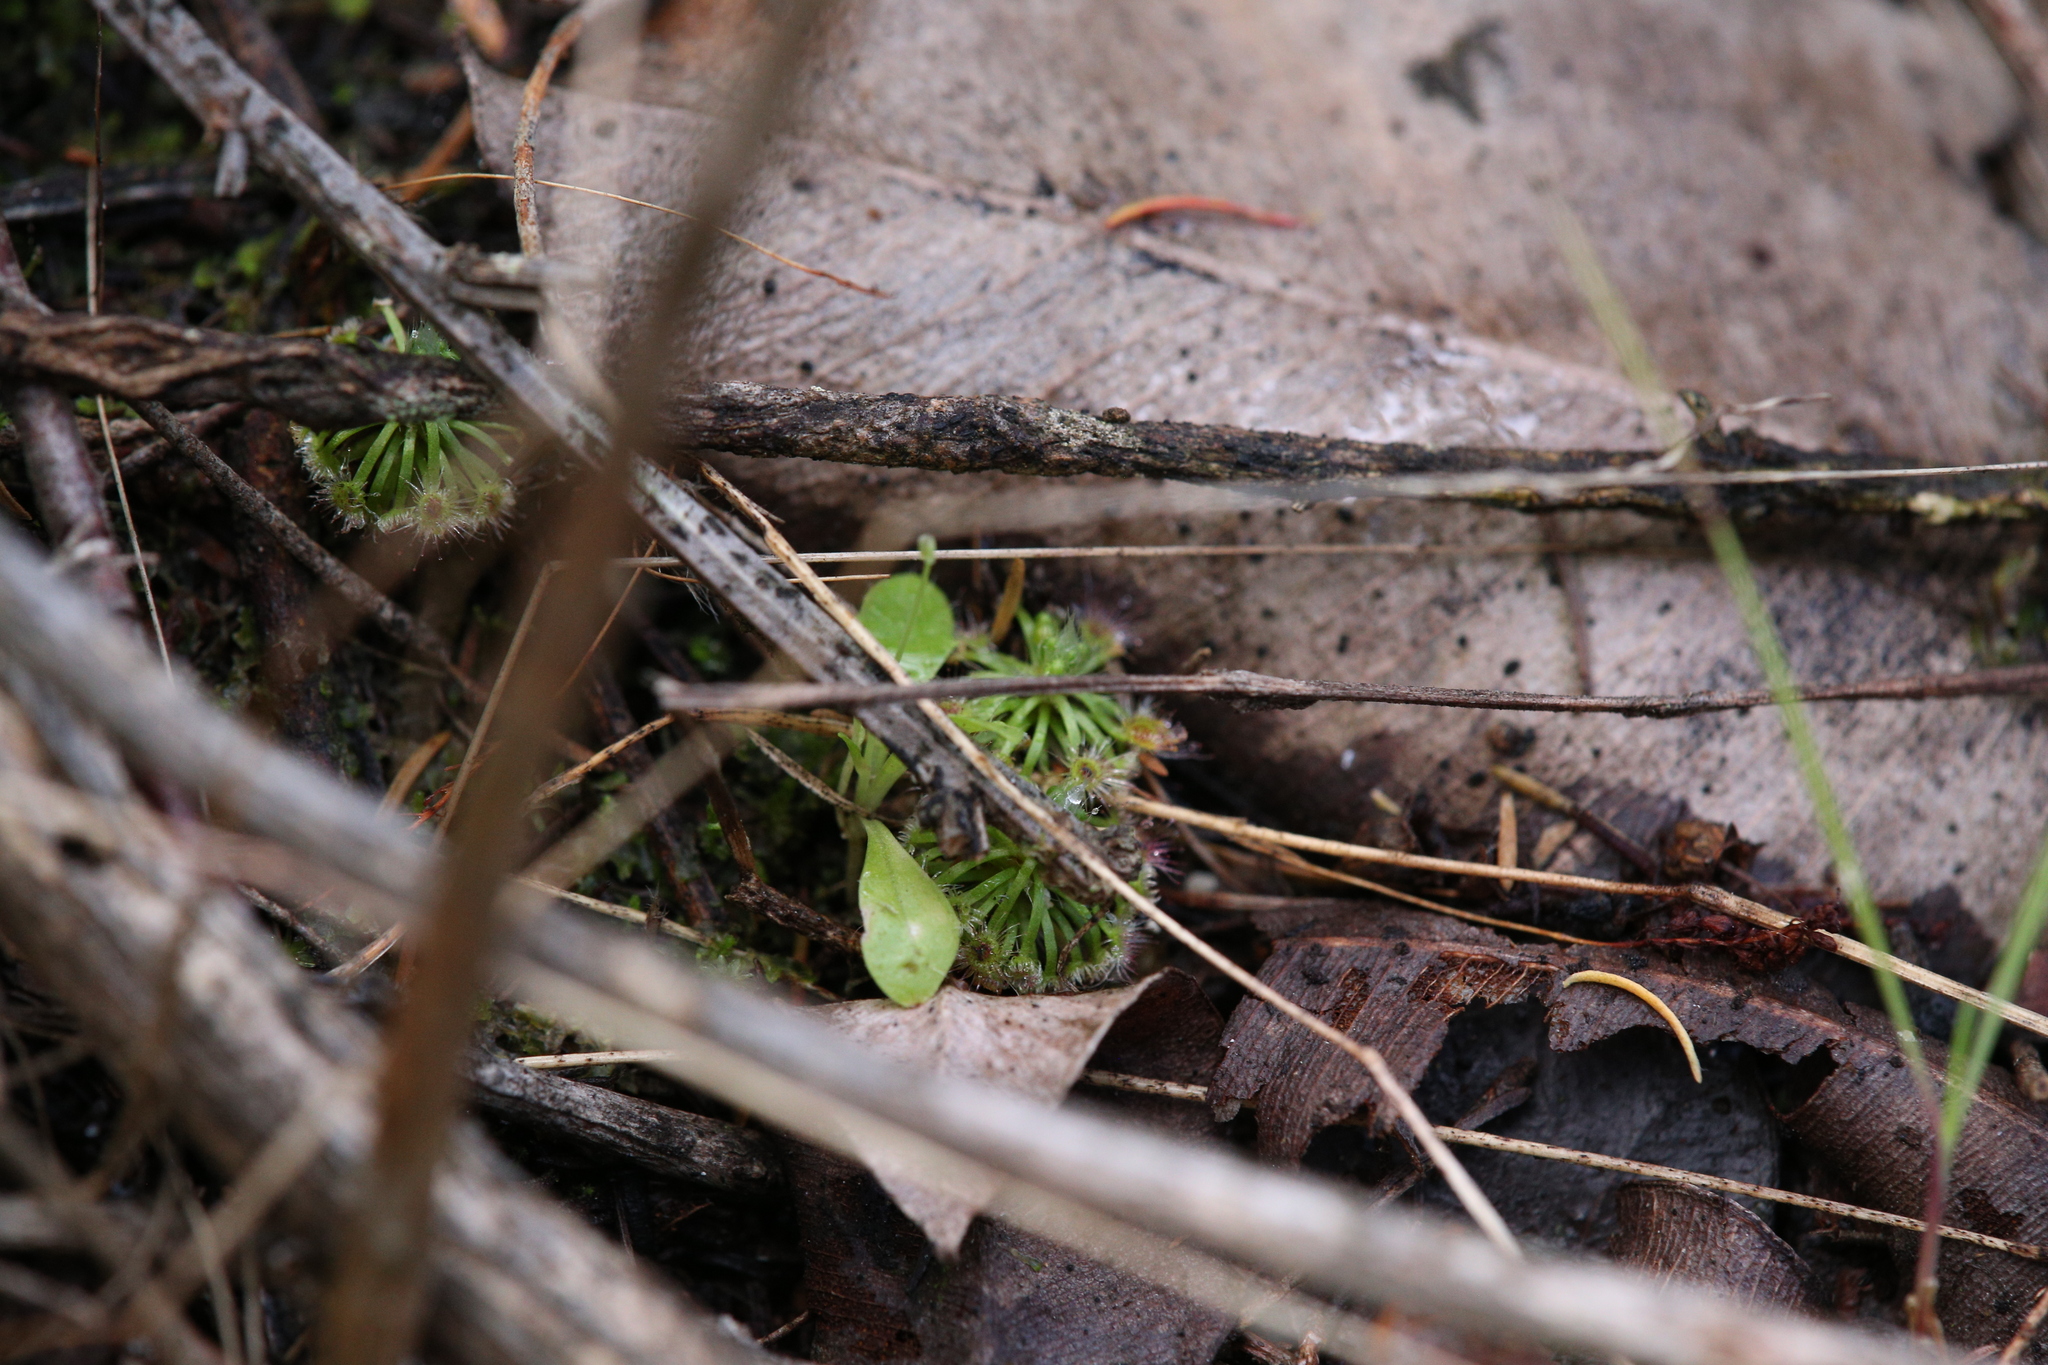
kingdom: Plantae
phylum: Tracheophyta
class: Magnoliopsida
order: Caryophyllales
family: Droseraceae
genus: Drosera
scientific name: Drosera paleacea
